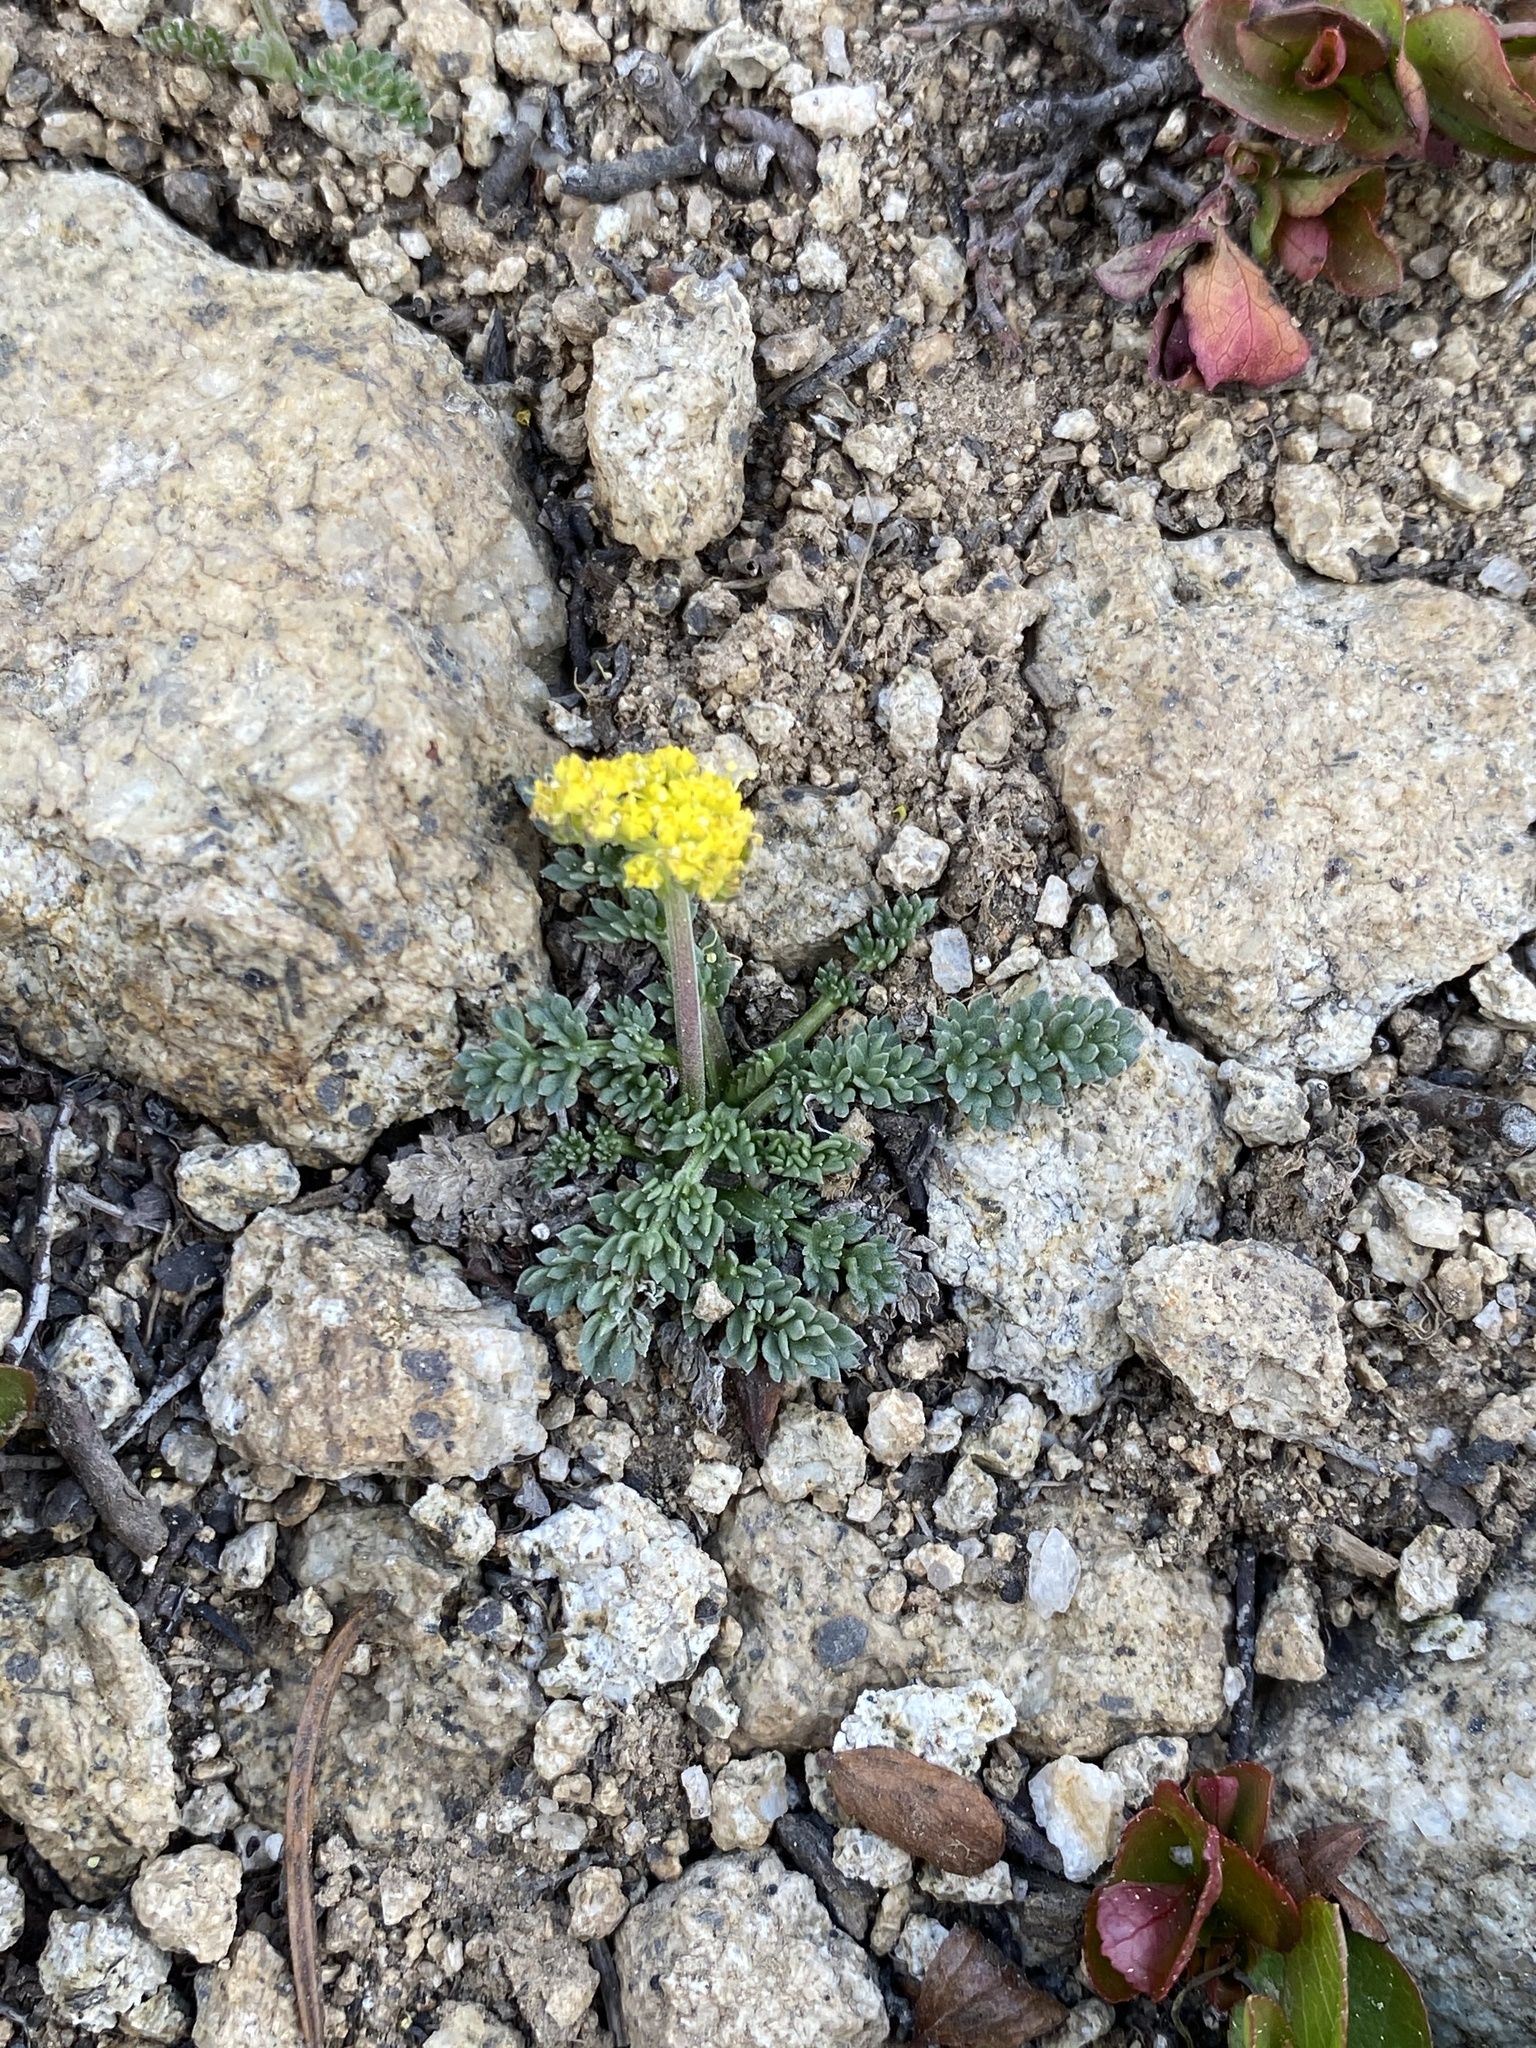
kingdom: Plantae
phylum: Tracheophyta
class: Magnoliopsida
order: Apiales
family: Apiaceae
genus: Oreoxis
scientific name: Oreoxis alpina
